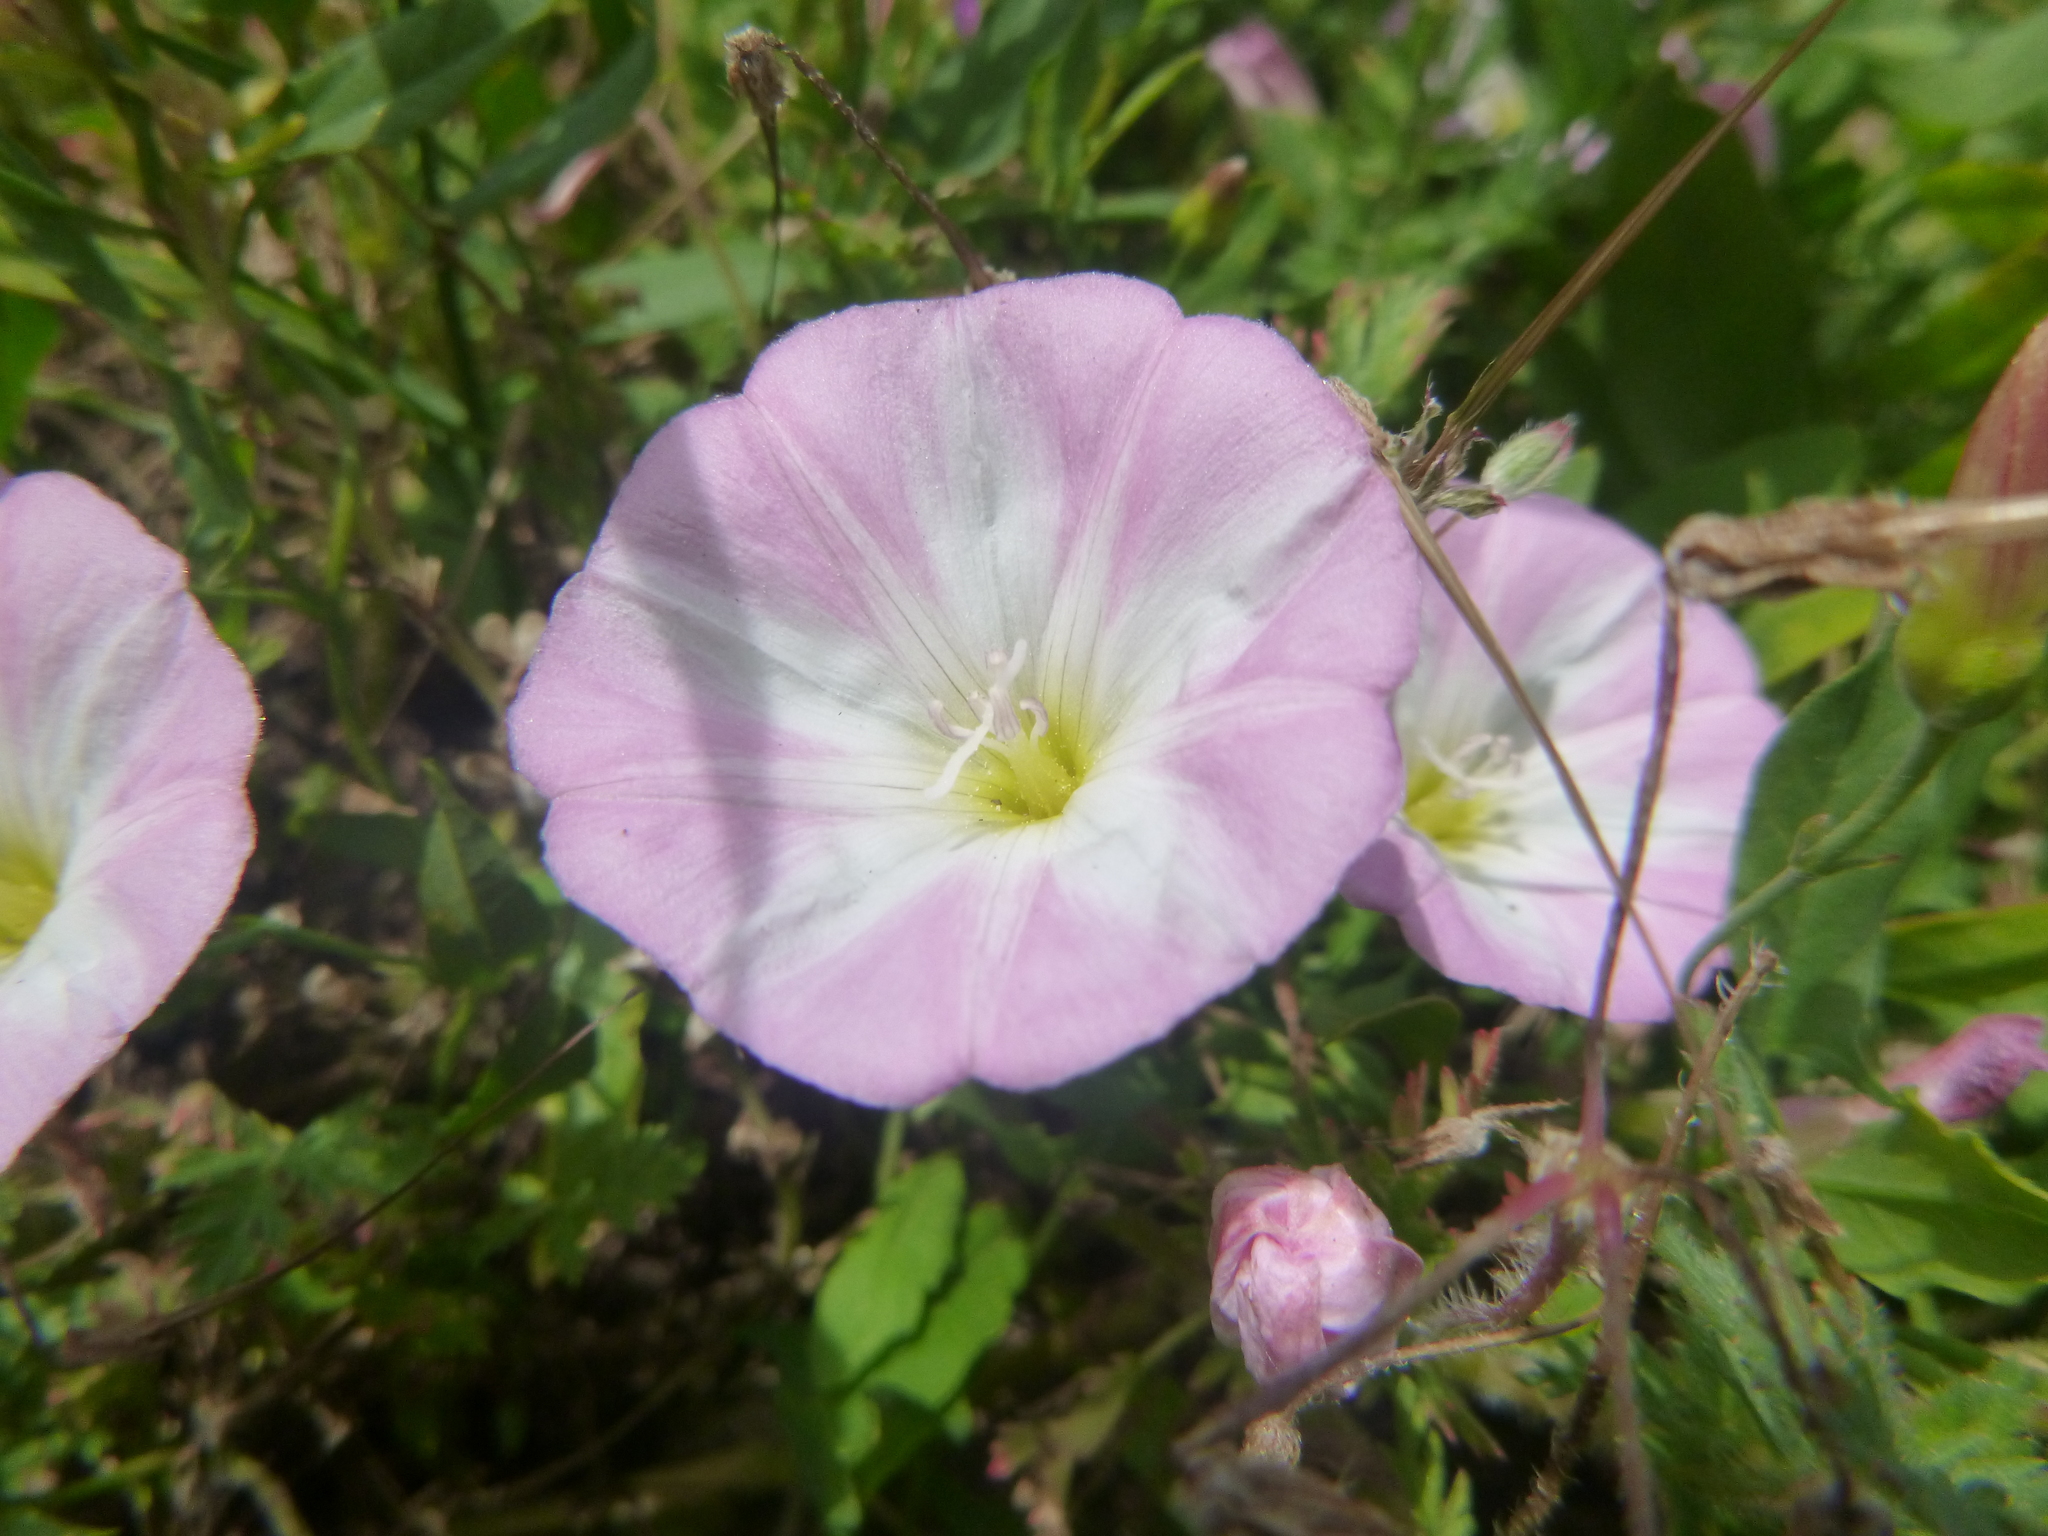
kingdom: Plantae
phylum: Tracheophyta
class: Magnoliopsida
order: Solanales
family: Convolvulaceae
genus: Convolvulus
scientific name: Convolvulus arvensis
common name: Field bindweed
